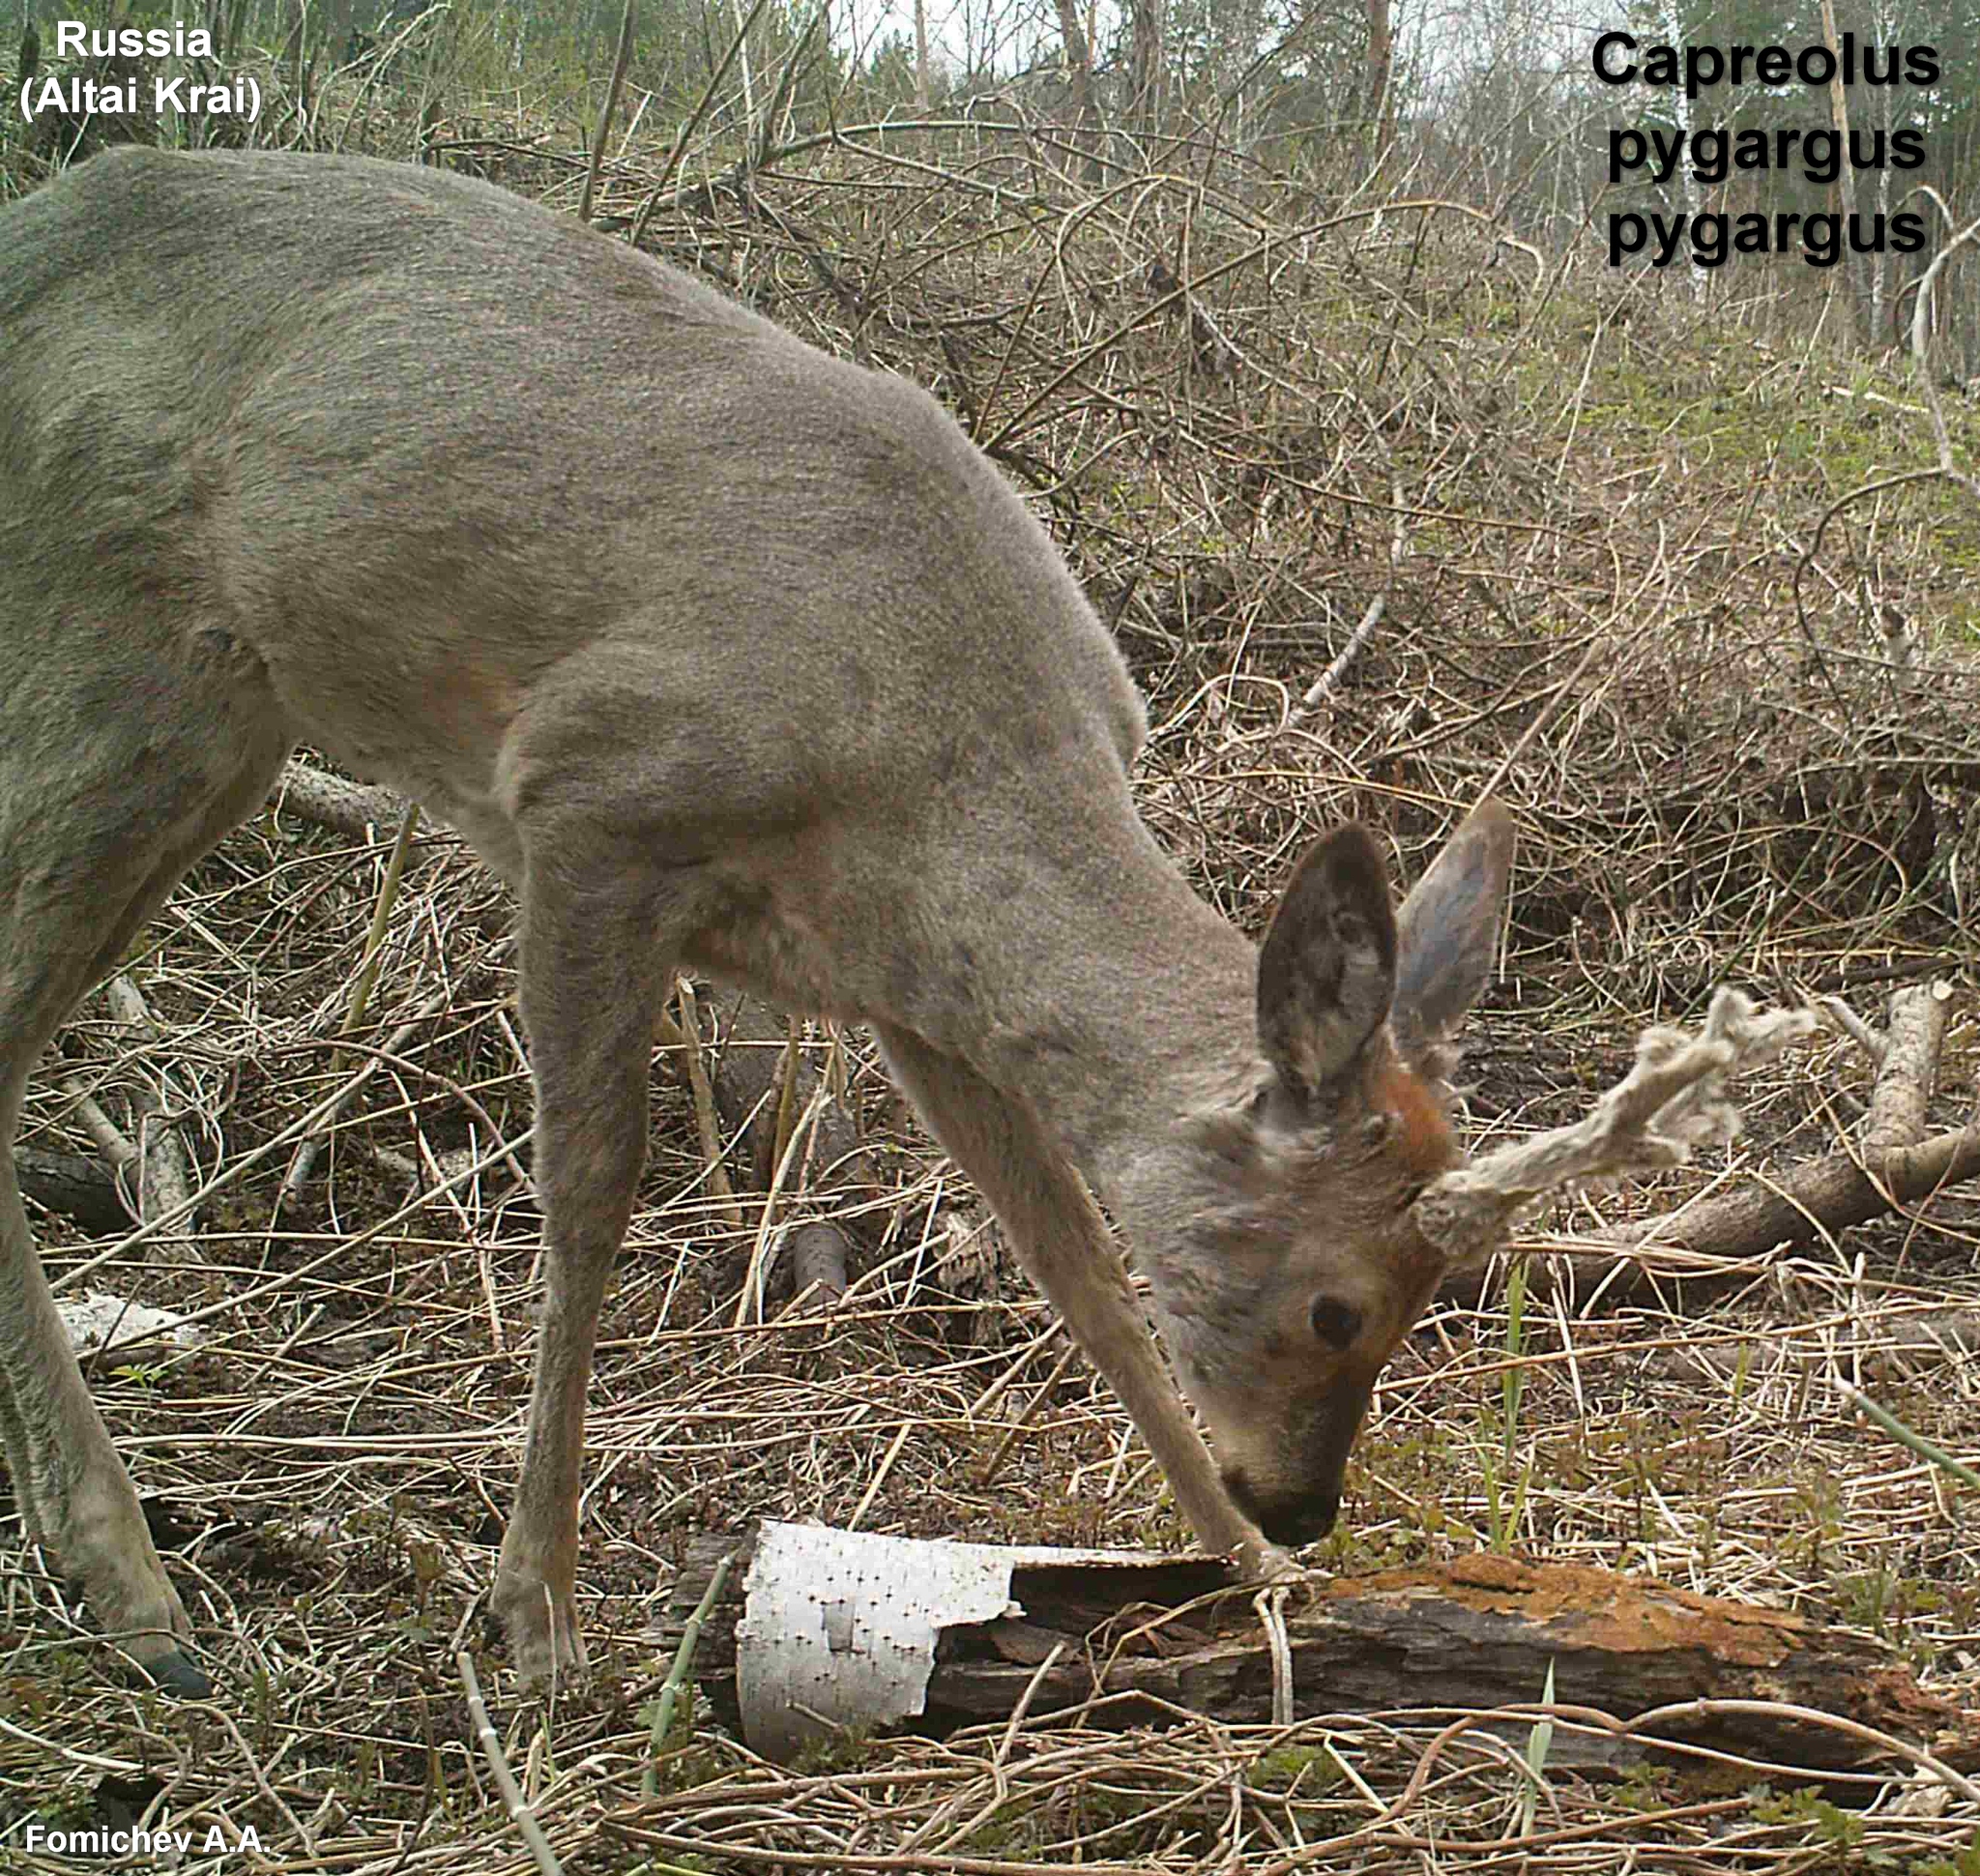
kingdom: Animalia
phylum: Chordata
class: Mammalia
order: Artiodactyla
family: Cervidae
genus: Capreolus
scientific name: Capreolus pygargus
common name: Siberian roe
